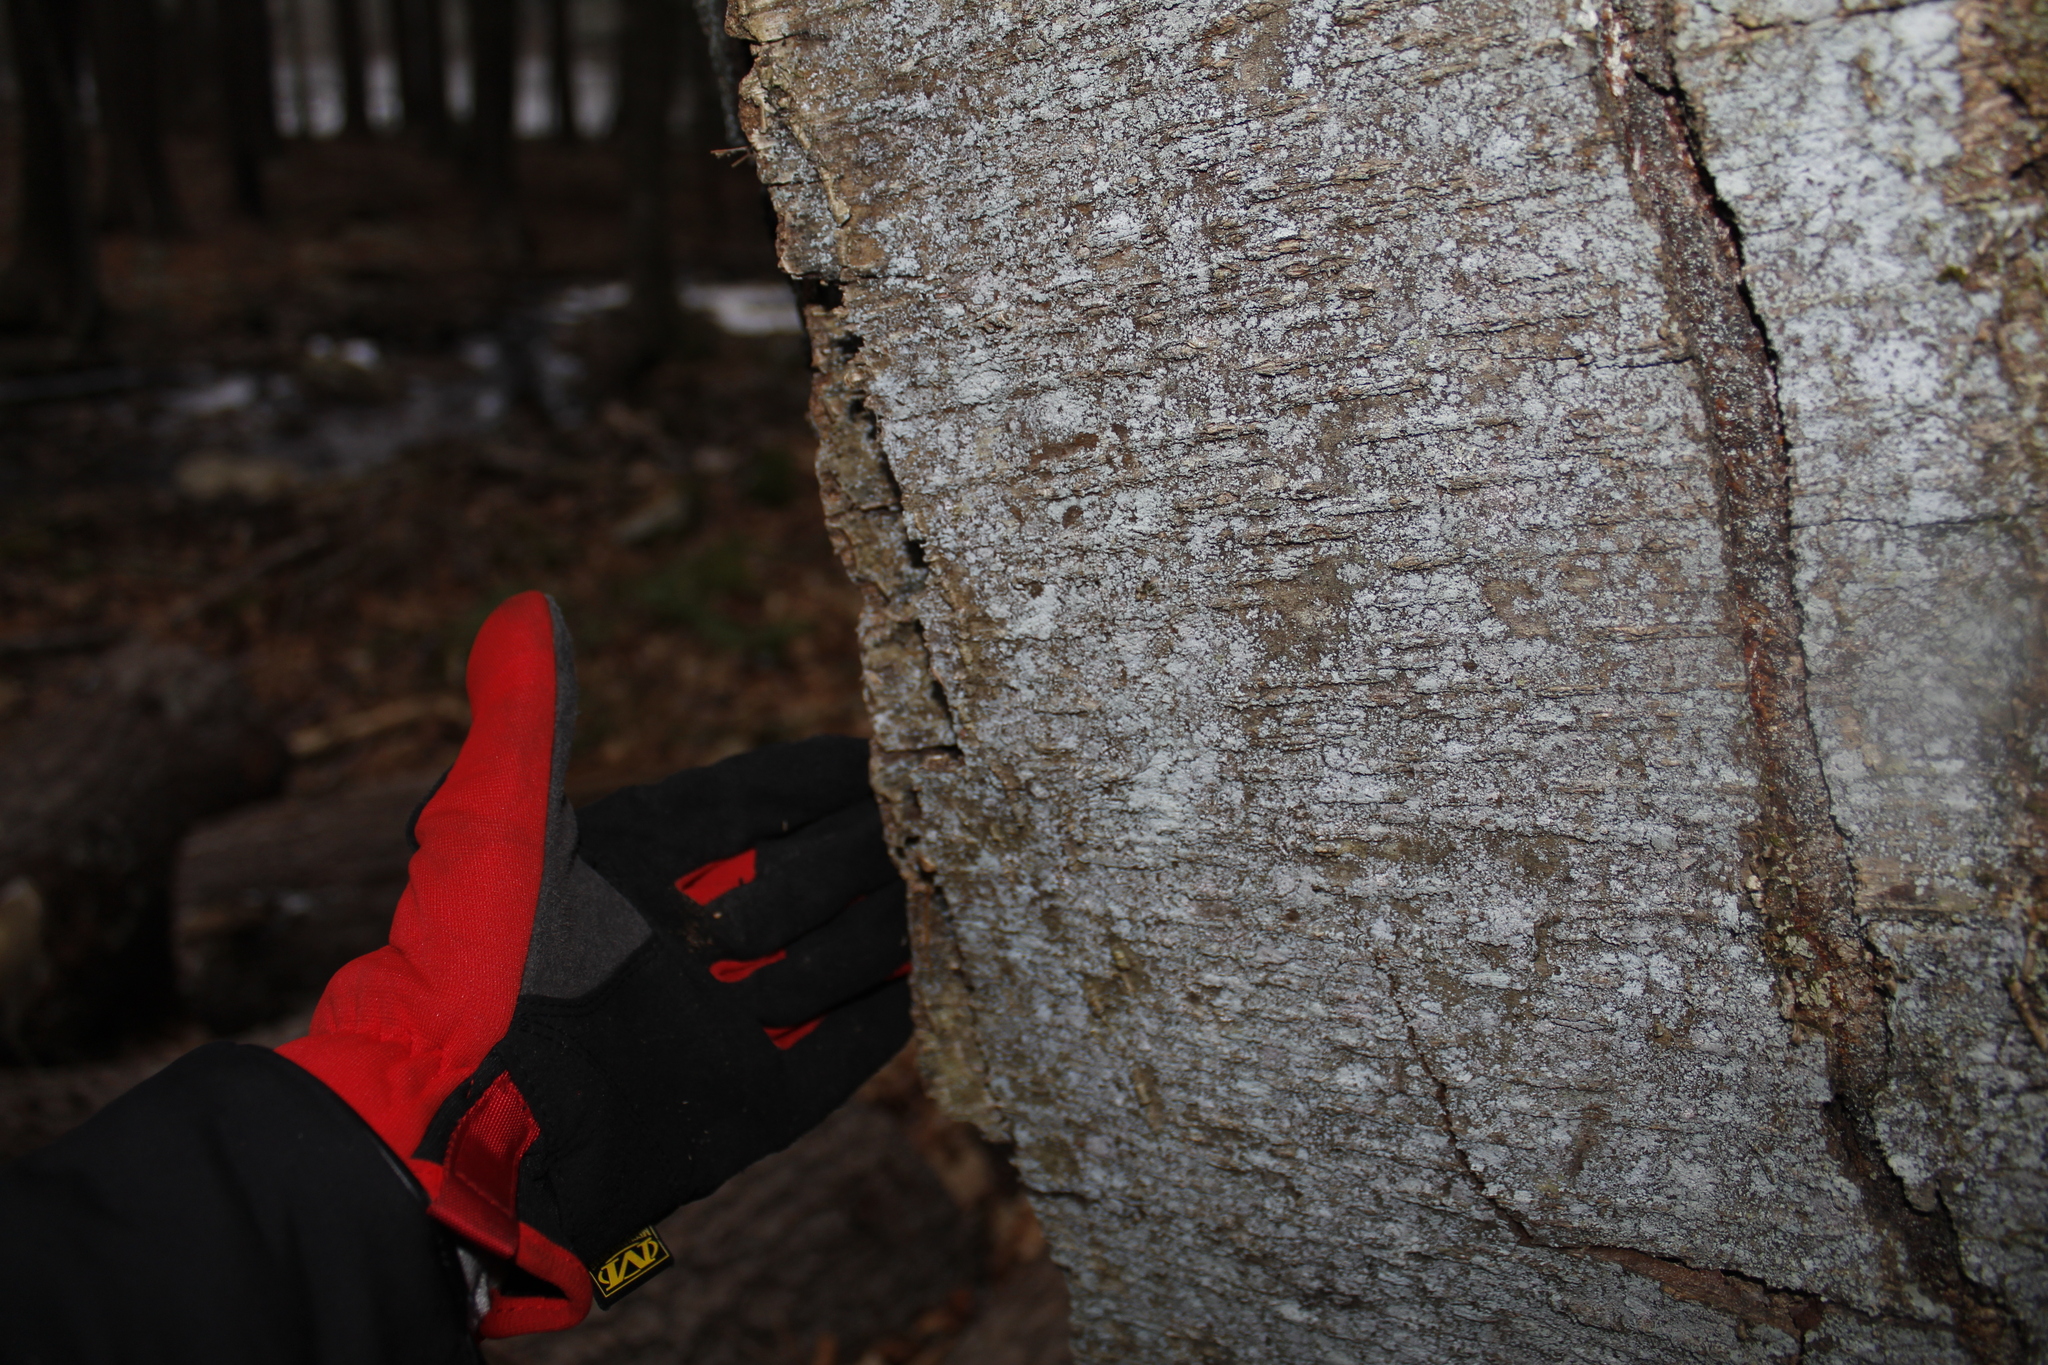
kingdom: Plantae
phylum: Tracheophyta
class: Magnoliopsida
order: Fagales
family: Betulaceae
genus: Betula
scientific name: Betula lenta
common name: Black birch
